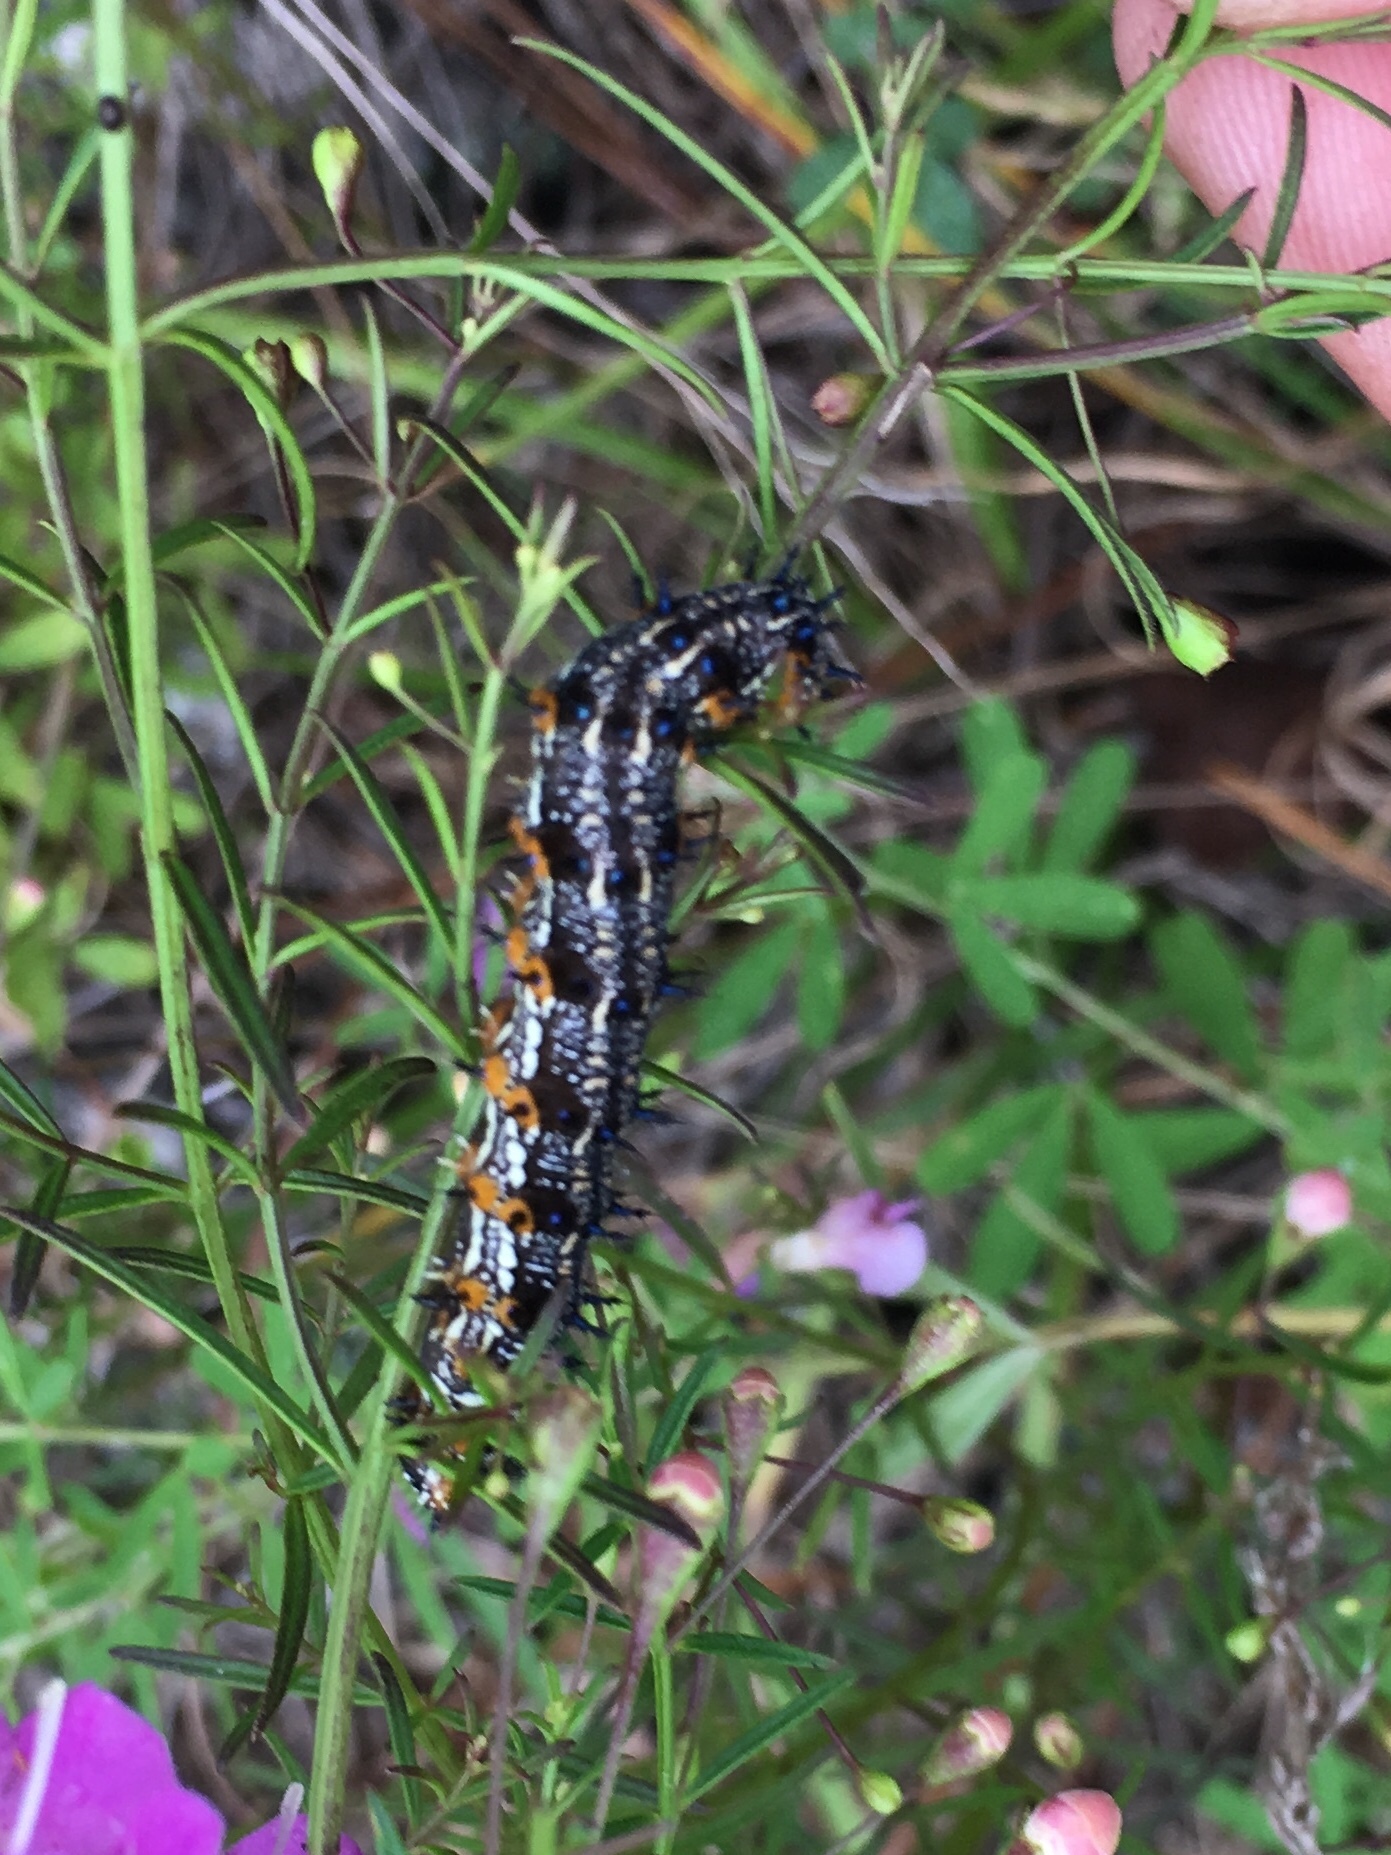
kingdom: Animalia
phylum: Arthropoda
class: Insecta
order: Lepidoptera
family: Nymphalidae
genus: Junonia
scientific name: Junonia coenia
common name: Common buckeye
